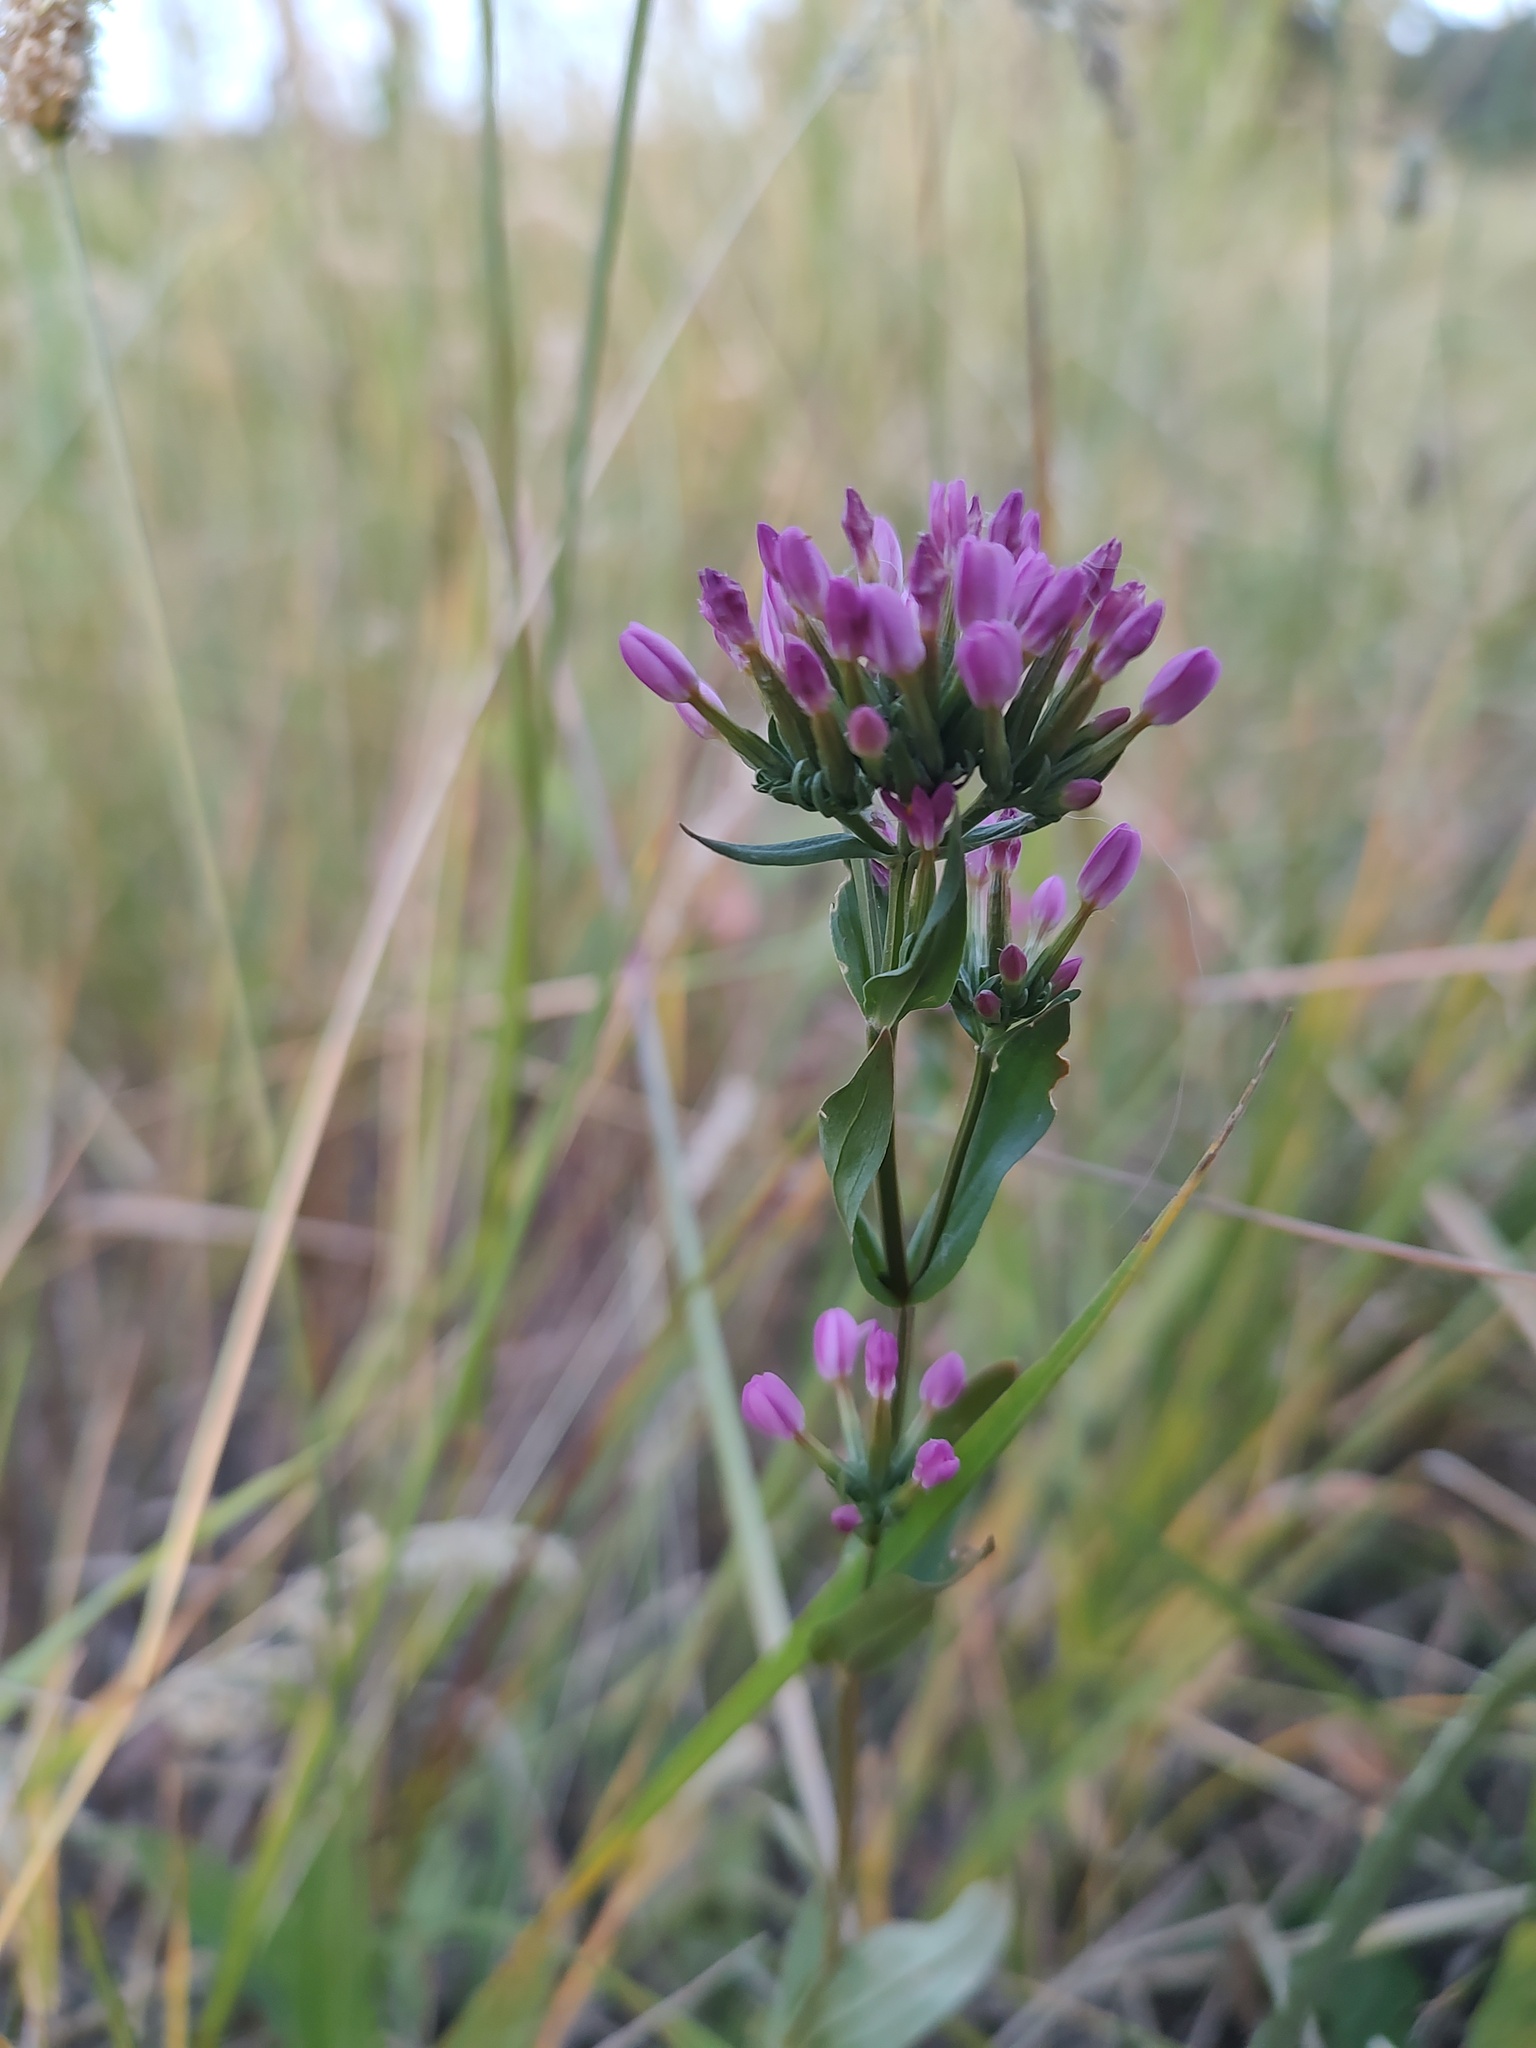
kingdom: Plantae
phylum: Tracheophyta
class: Magnoliopsida
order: Gentianales
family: Gentianaceae
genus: Centaurium
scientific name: Centaurium erythraea
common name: Common centaury
